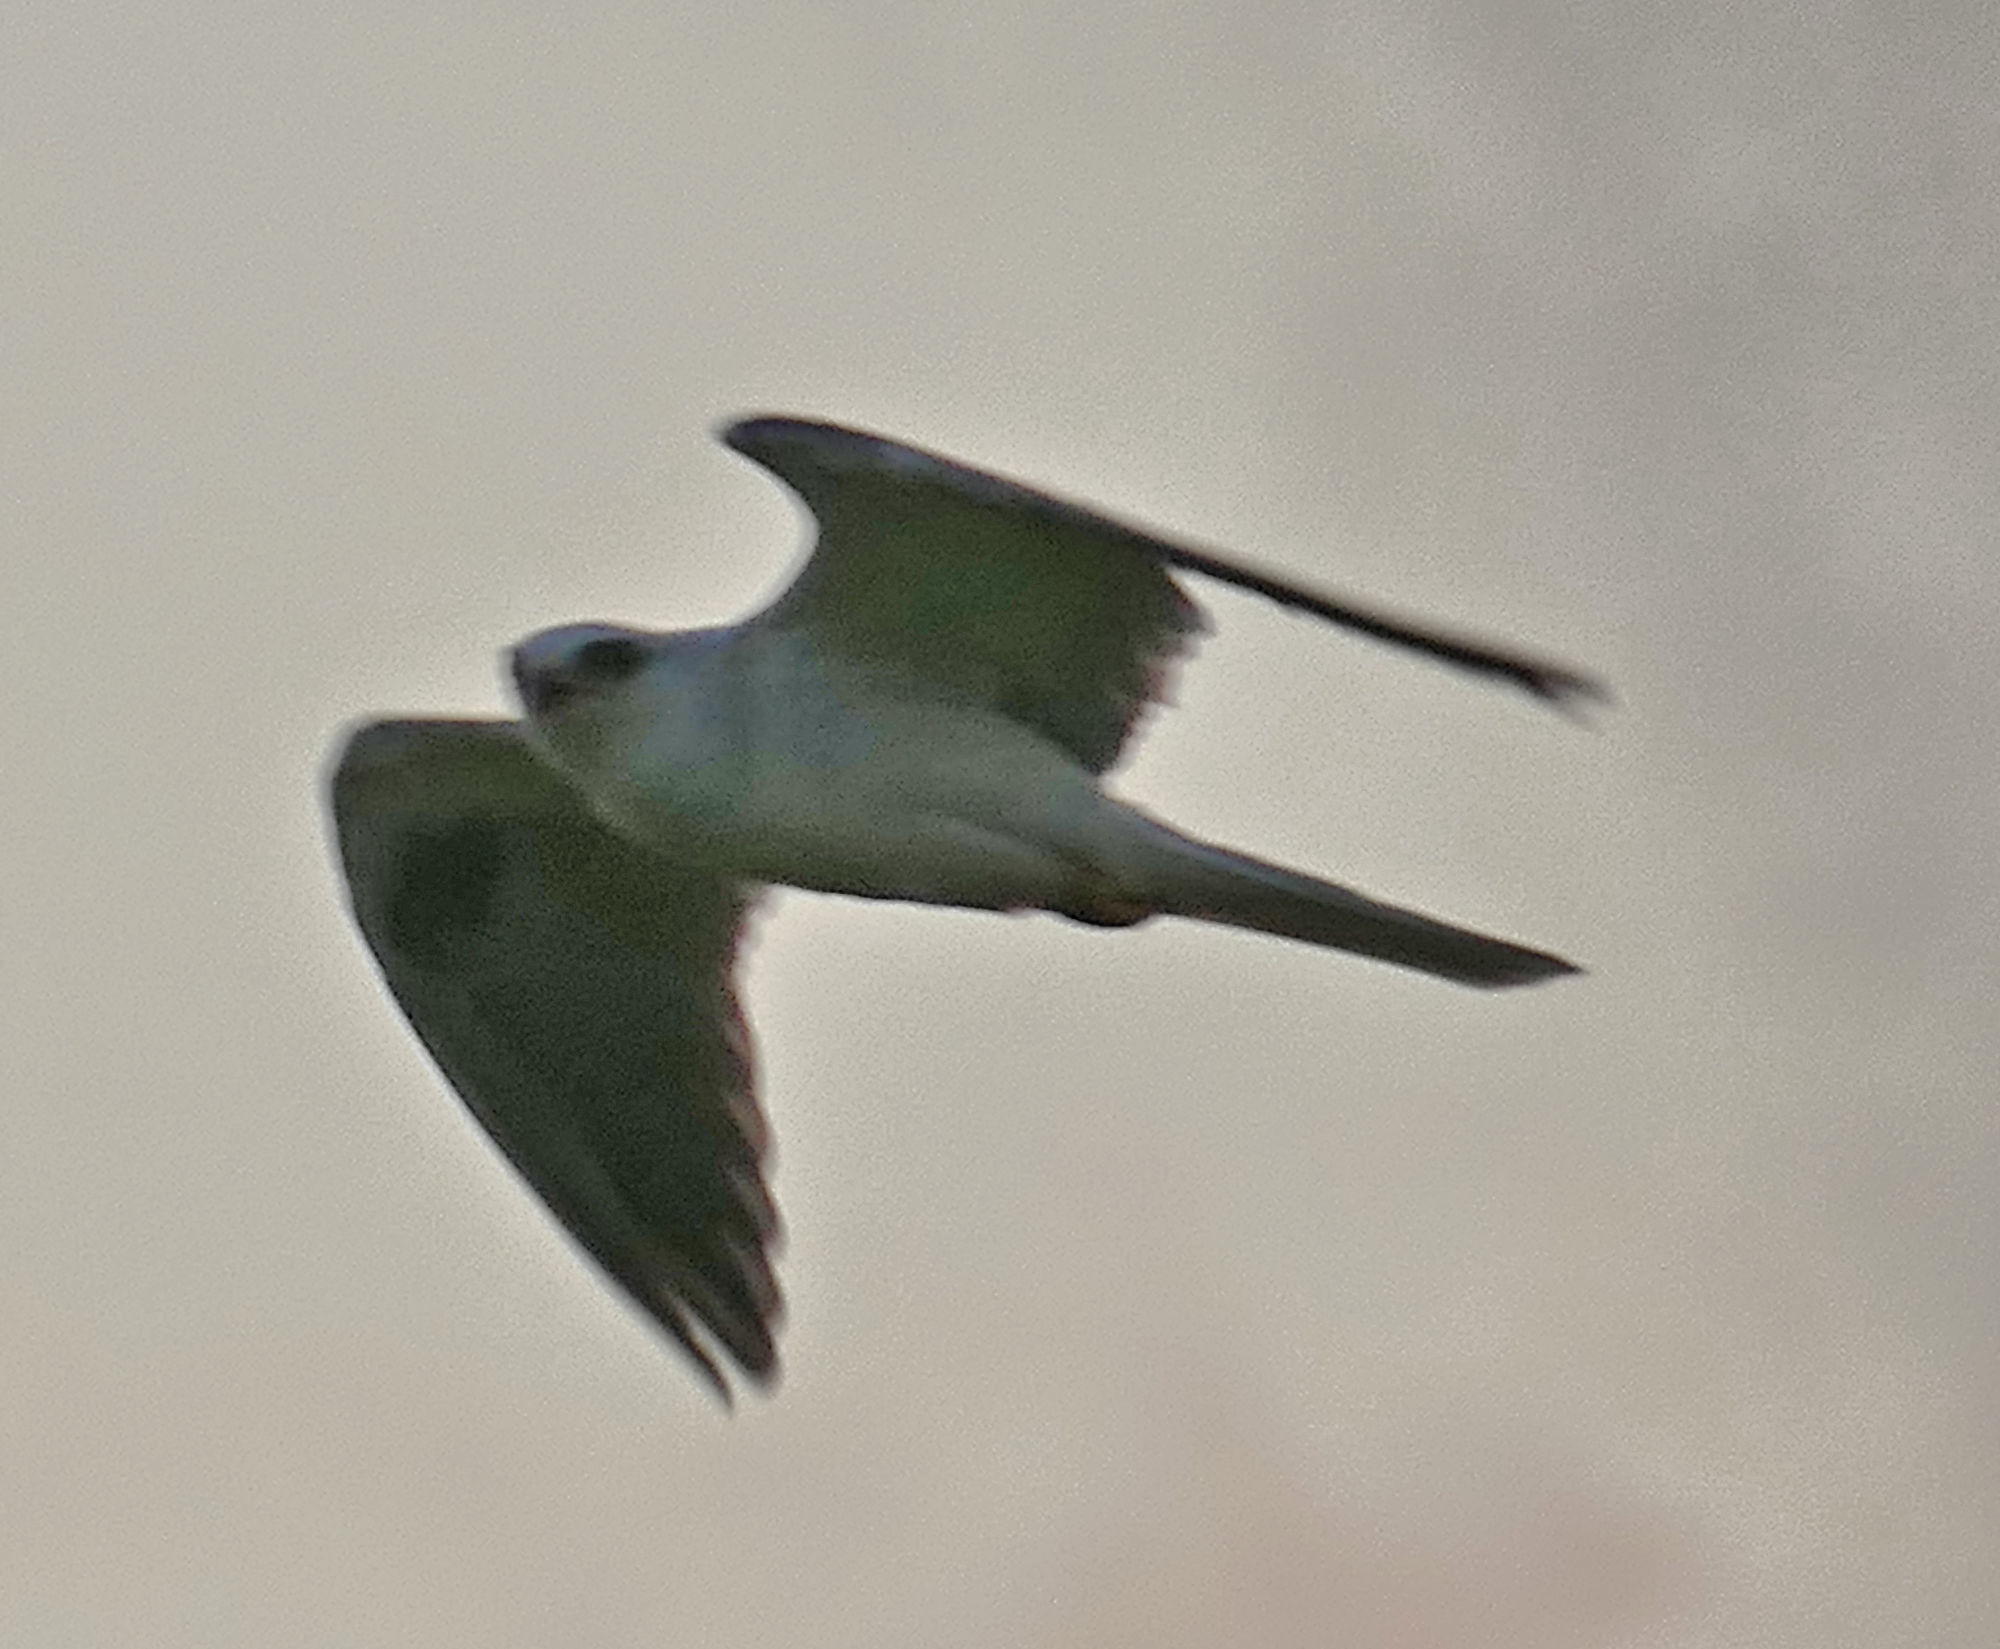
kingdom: Animalia
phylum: Chordata
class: Aves
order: Accipitriformes
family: Accipitridae
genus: Elanus
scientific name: Elanus leucurus
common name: White-tailed kite
